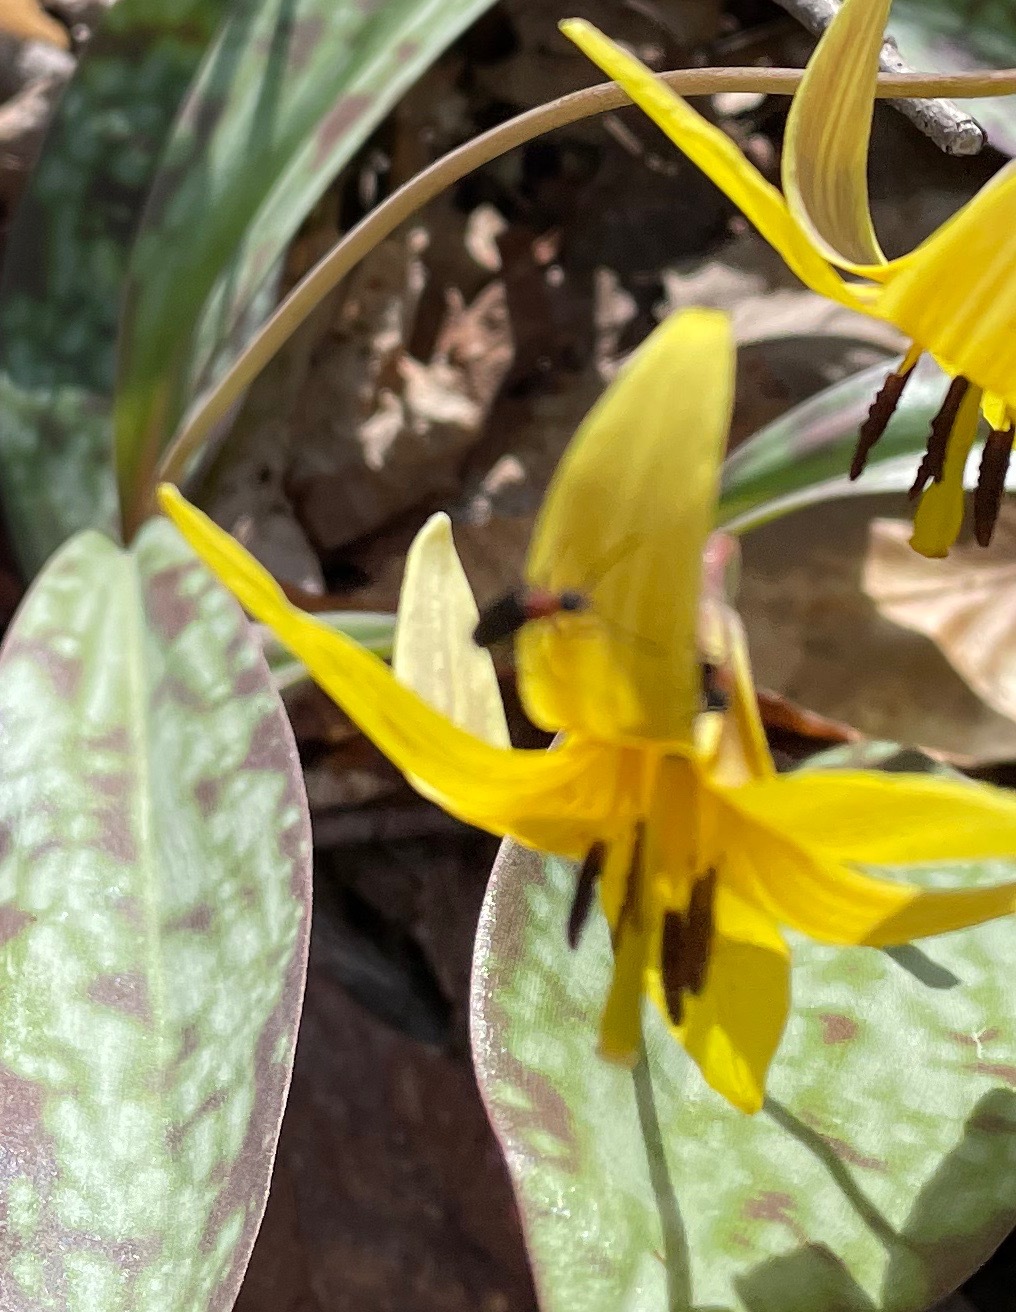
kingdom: Animalia
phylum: Arthropoda
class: Insecta
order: Coleoptera
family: Oedemeridae
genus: Ischnomera
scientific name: Ischnomera
